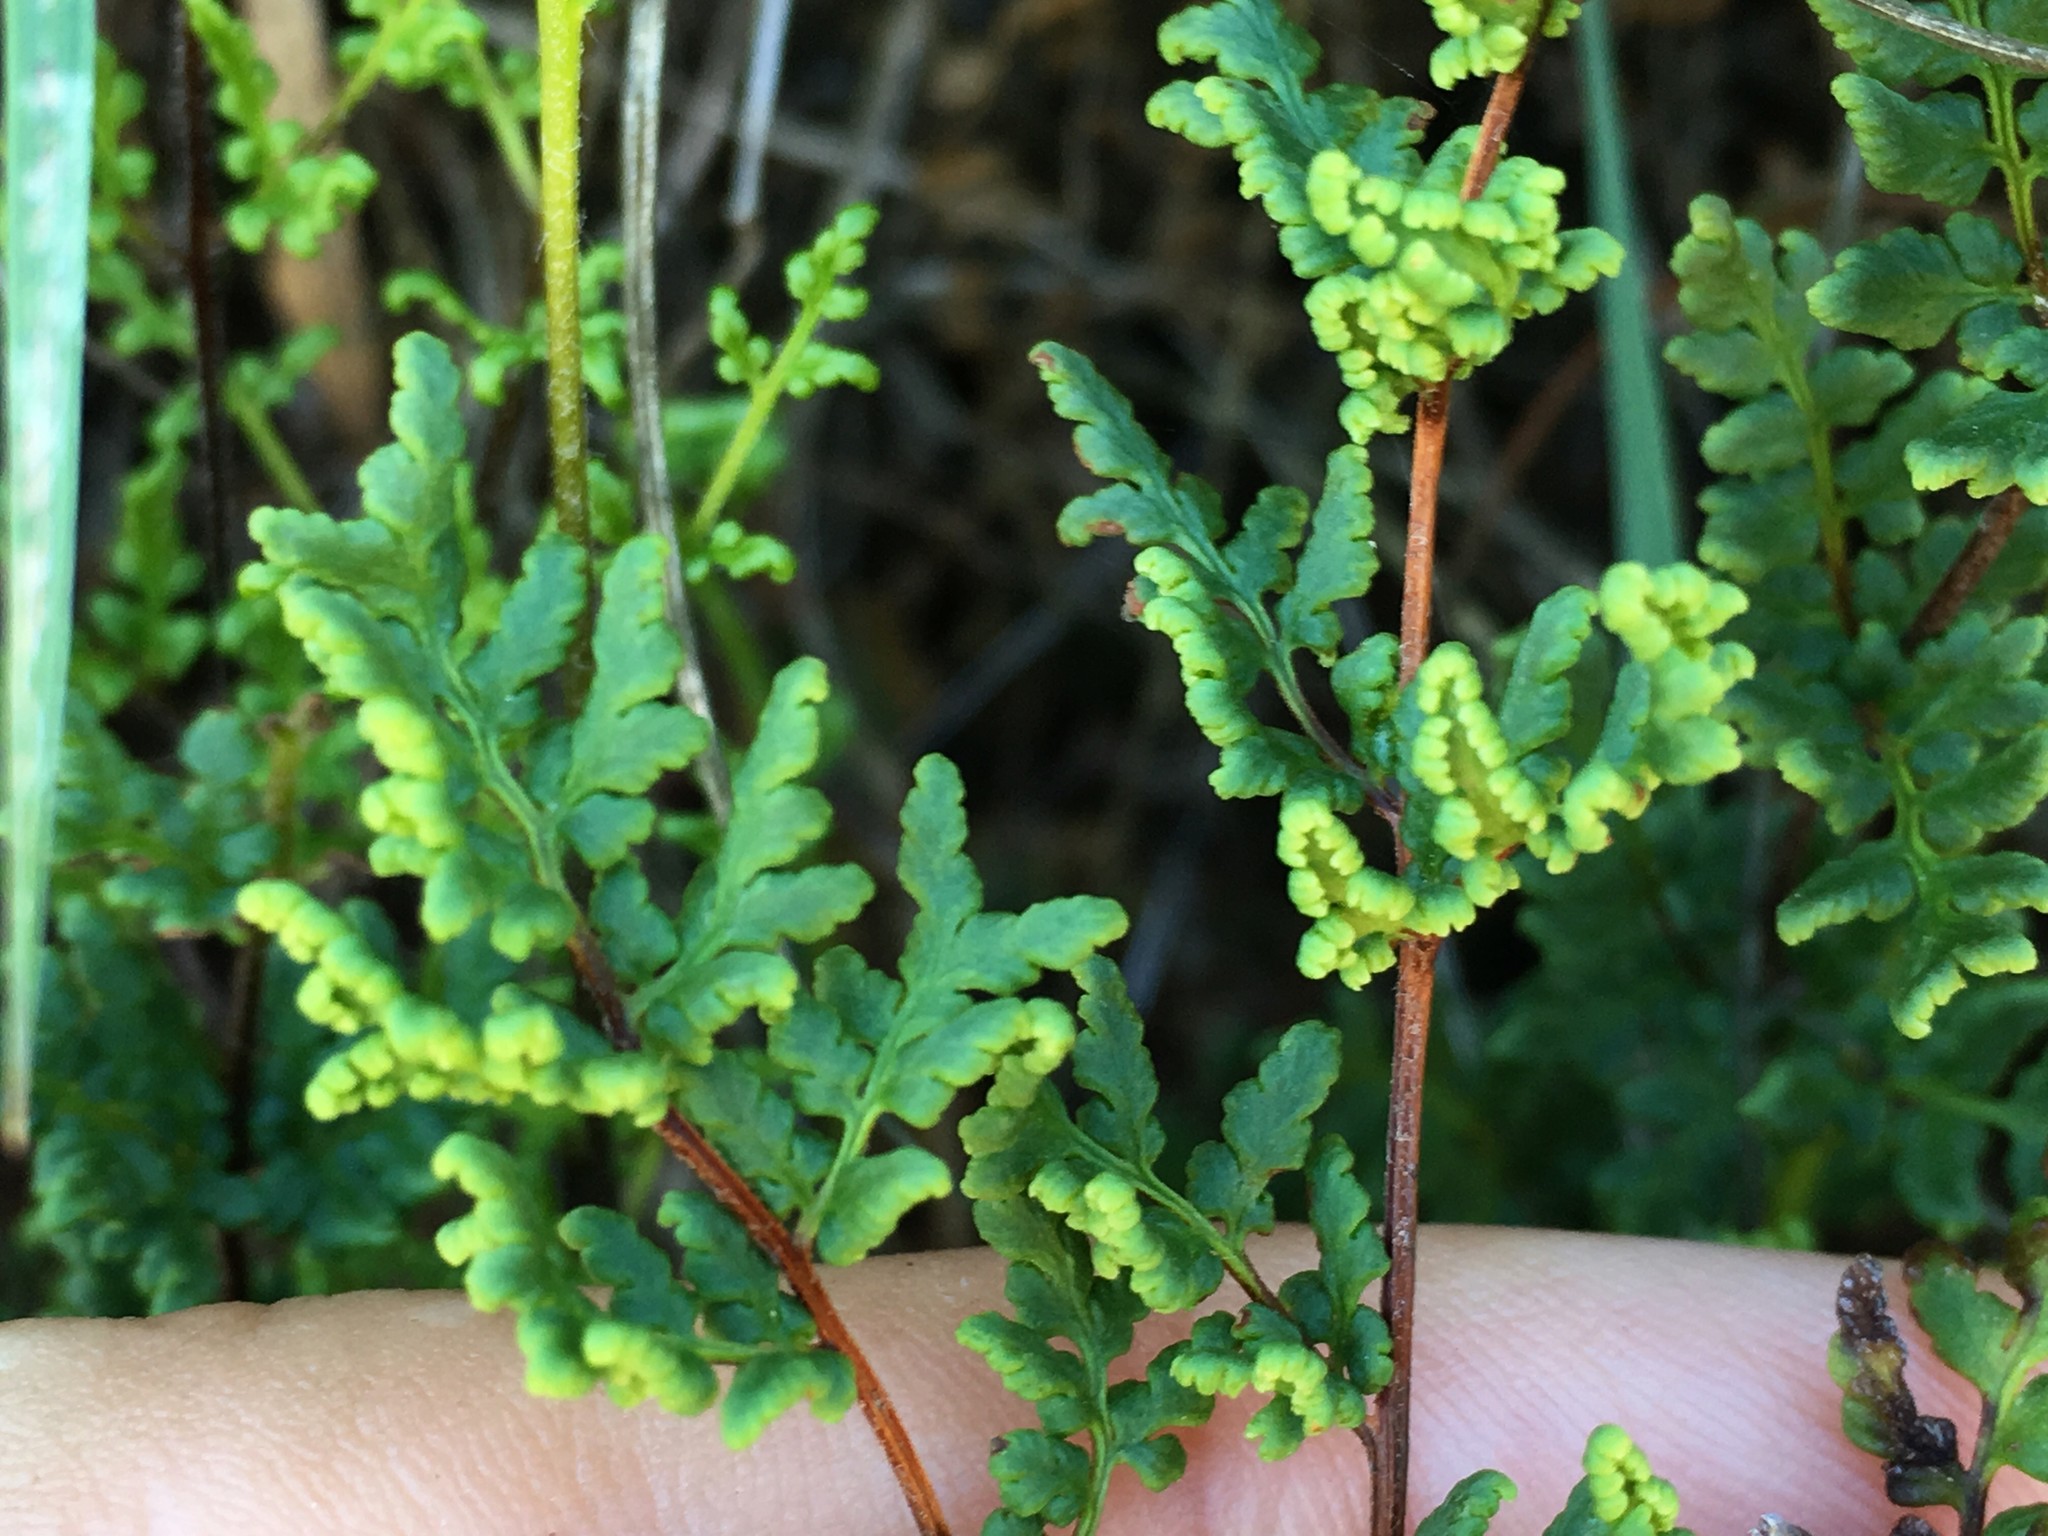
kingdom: Plantae
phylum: Tracheophyta
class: Polypodiopsida
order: Polypodiales
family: Pteridaceae
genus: Cheilanthes
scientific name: Cheilanthes sieberi
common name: Mulga fern
